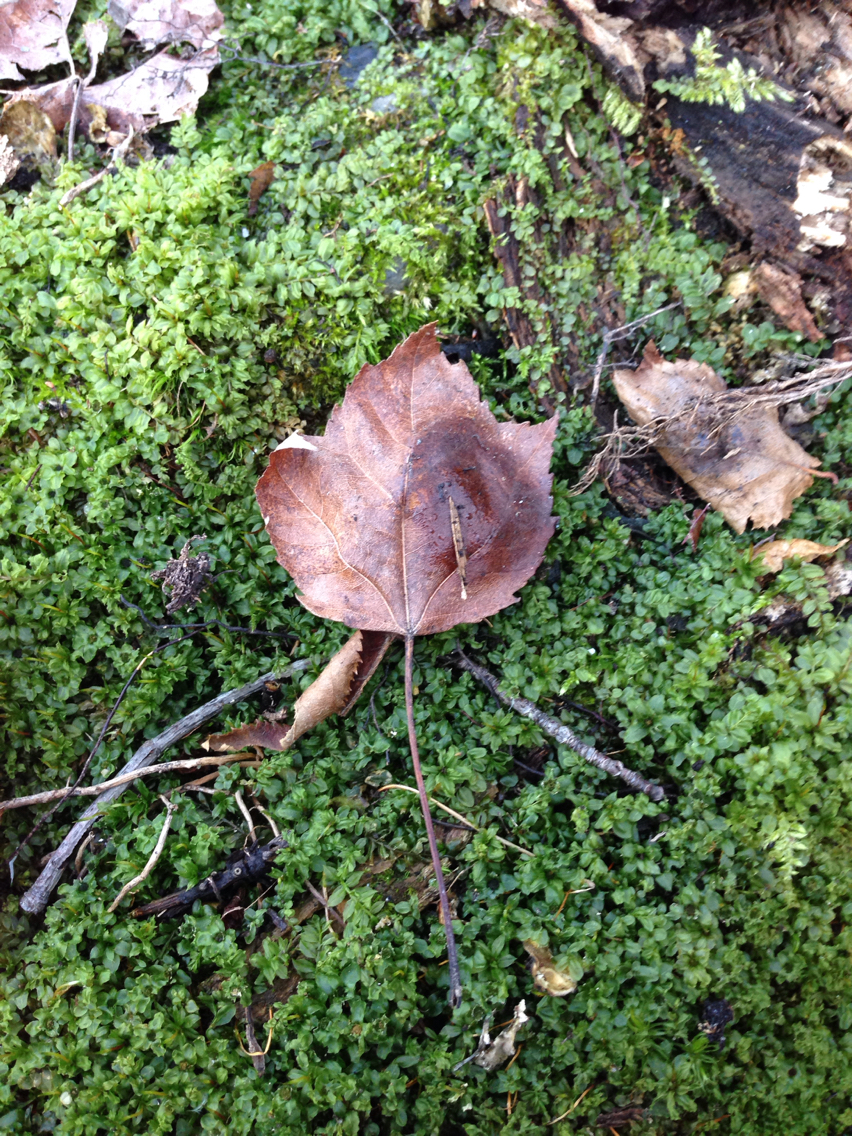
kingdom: Plantae
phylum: Tracheophyta
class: Magnoliopsida
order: Sapindales
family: Sapindaceae
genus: Acer
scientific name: Acer rubrum
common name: Red maple
